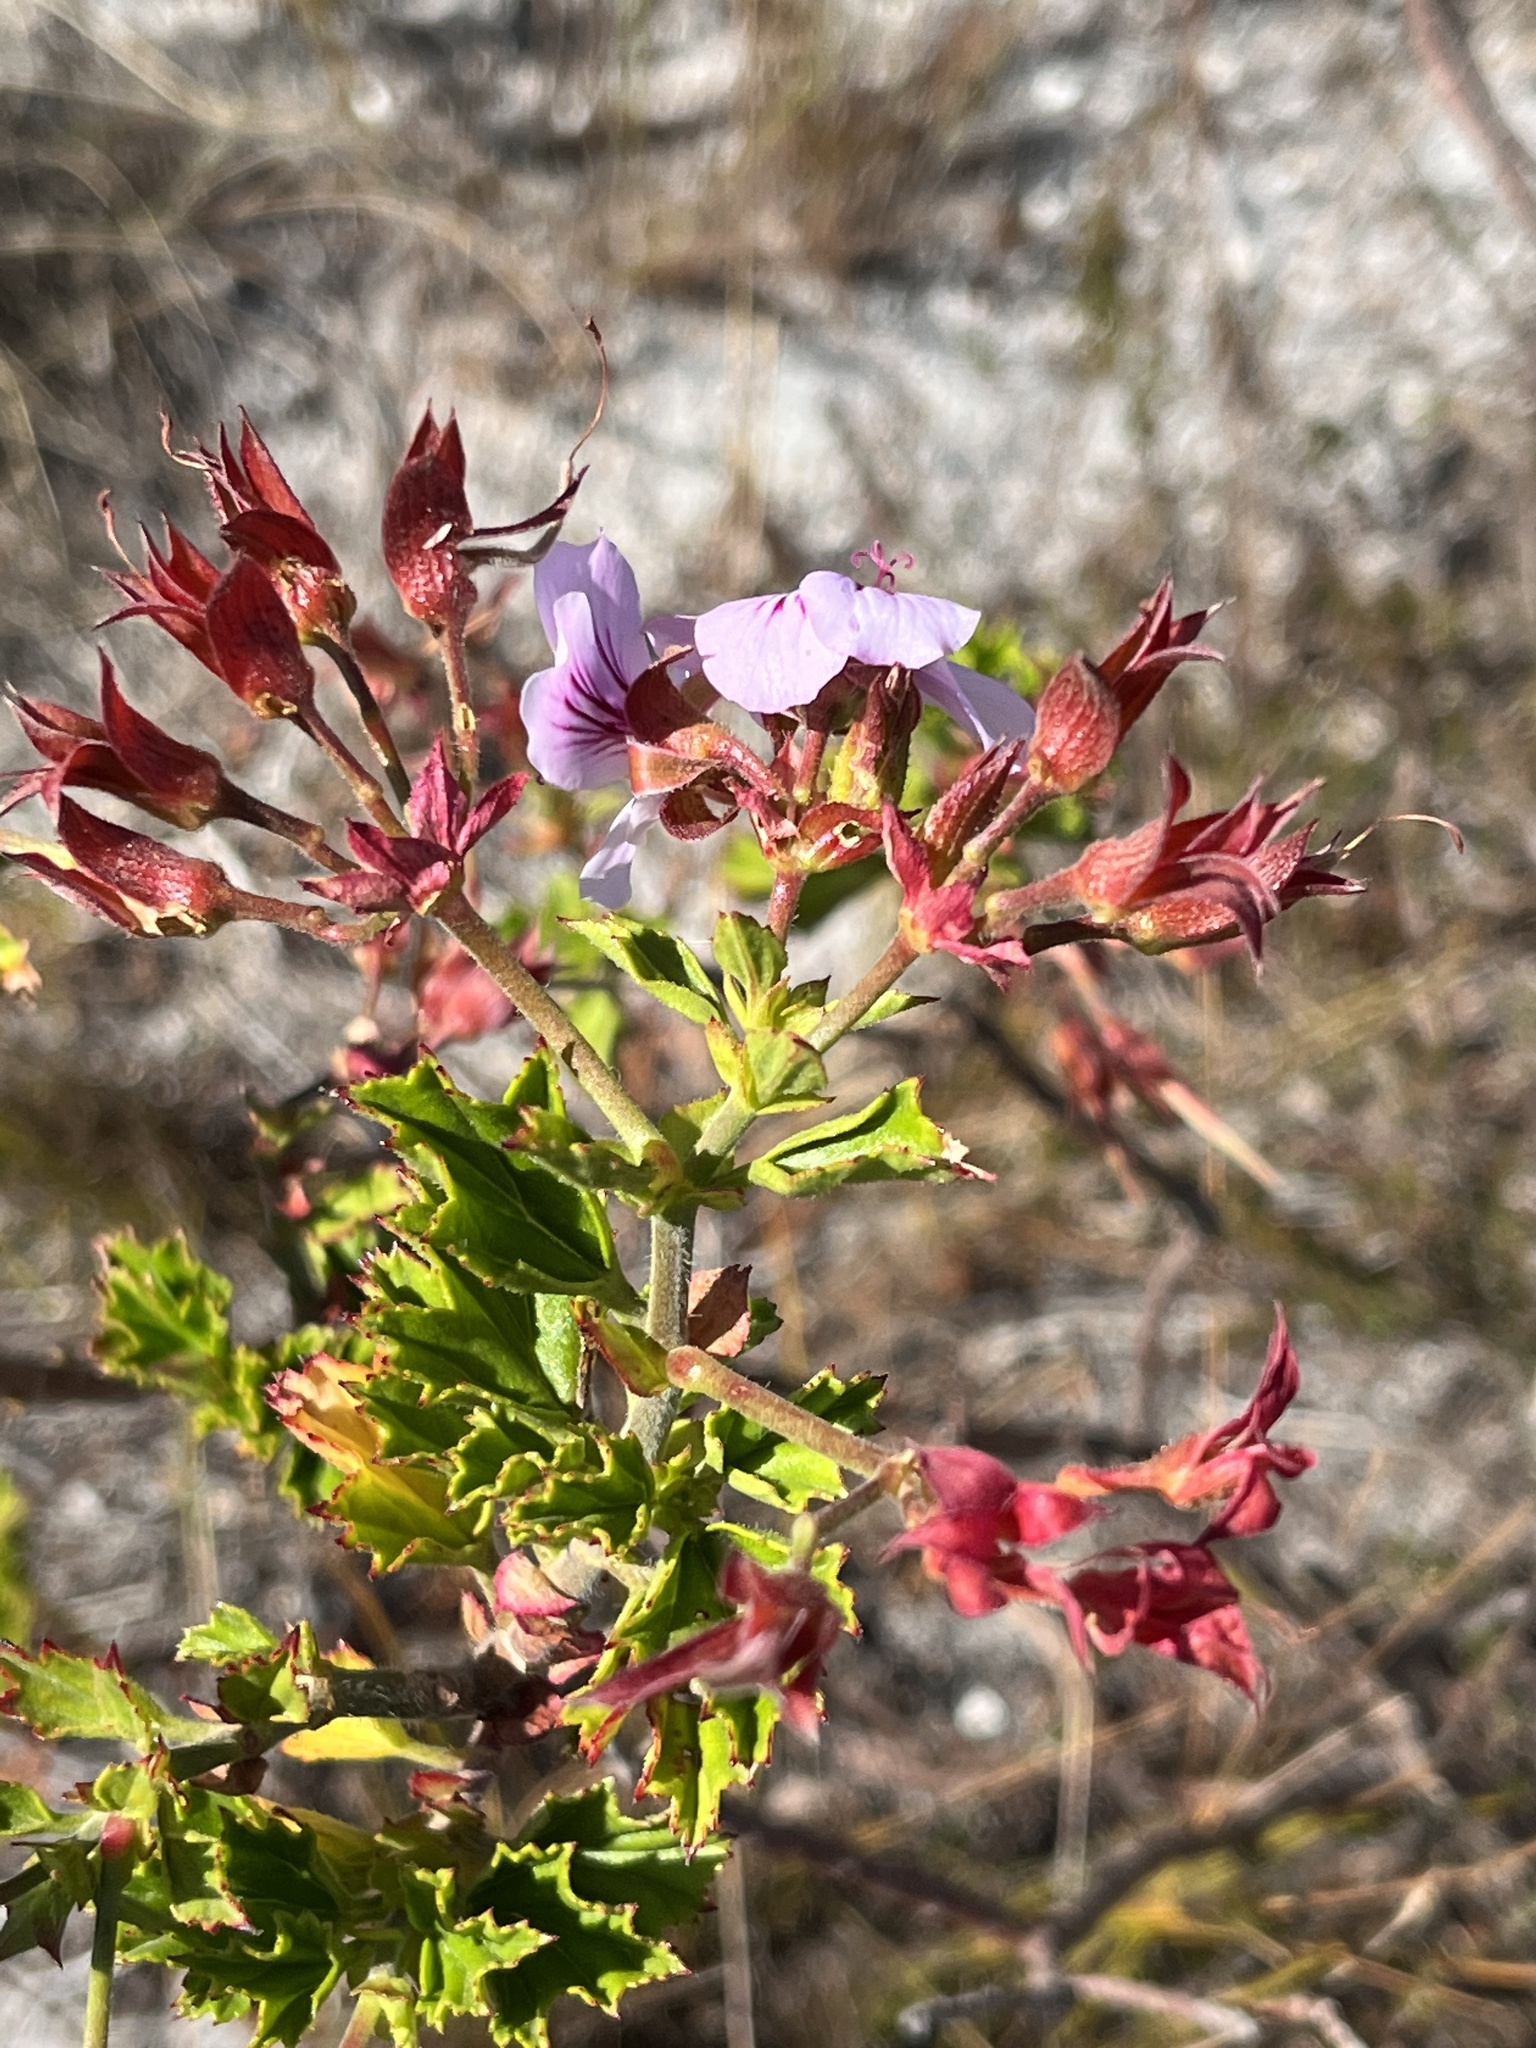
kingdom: Plantae
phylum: Tracheophyta
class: Magnoliopsida
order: Geraniales
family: Geraniaceae
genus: Pelargonium
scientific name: Pelargonium betulinum
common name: Birch-leaf pelargonium
